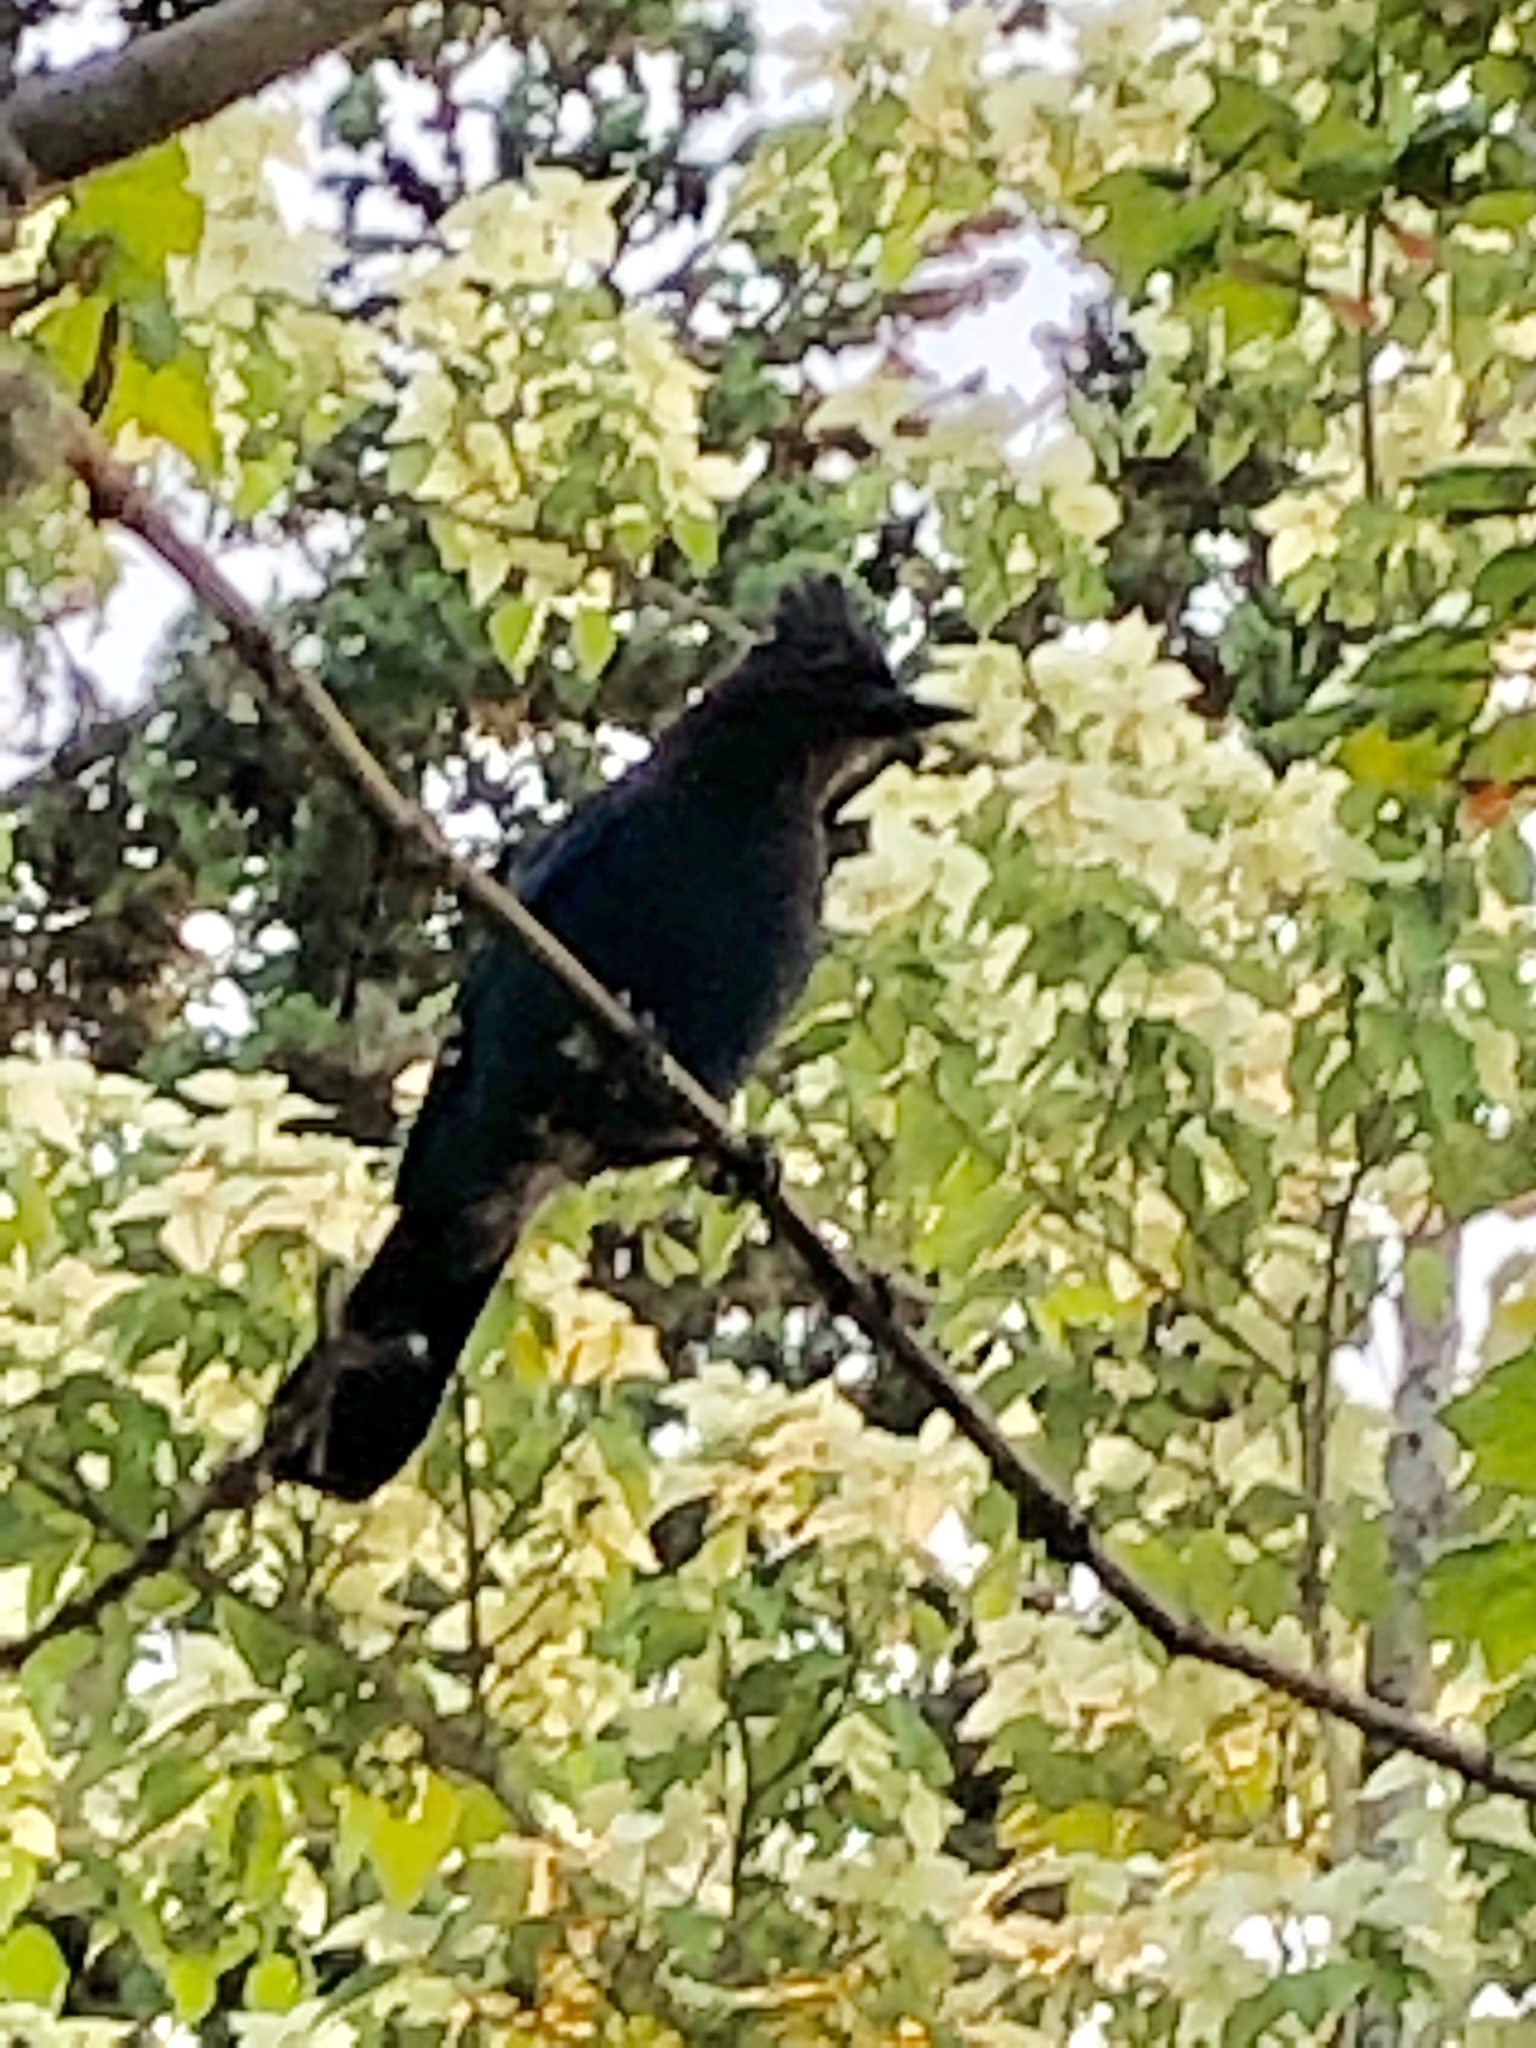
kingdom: Animalia
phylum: Chordata
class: Aves
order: Passeriformes
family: Corvidae
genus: Cyanocitta
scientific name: Cyanocitta stelleri
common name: Steller's jay
